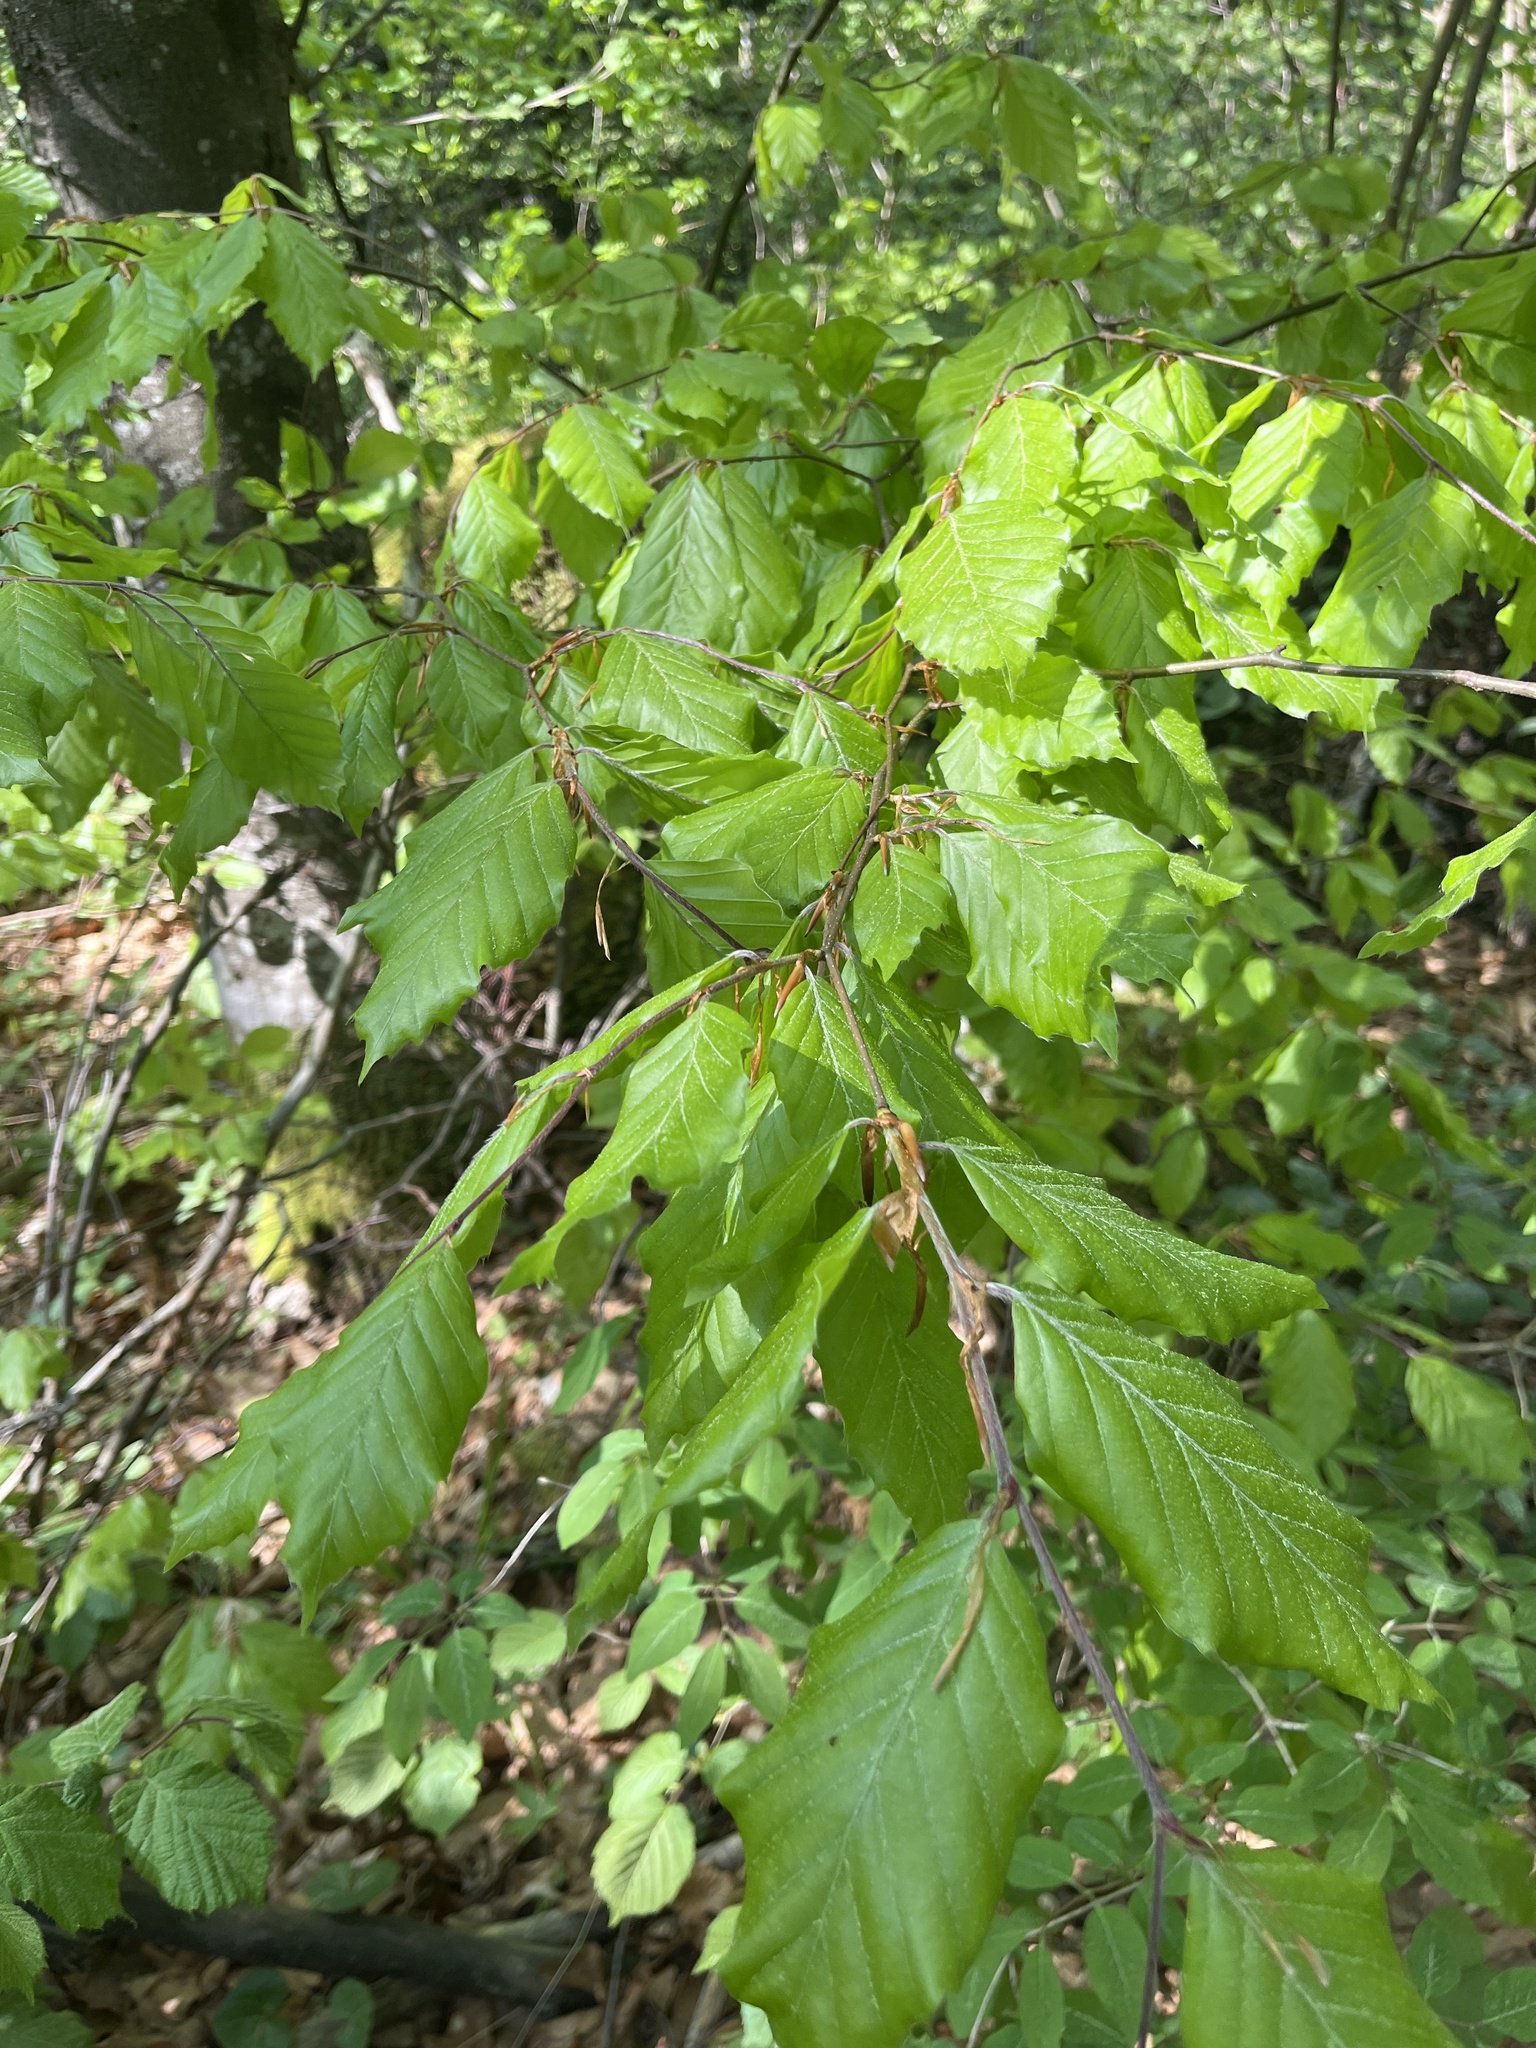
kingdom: Plantae
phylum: Tracheophyta
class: Magnoliopsida
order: Fagales
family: Fagaceae
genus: Fagus
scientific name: Fagus sylvatica
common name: Beech
